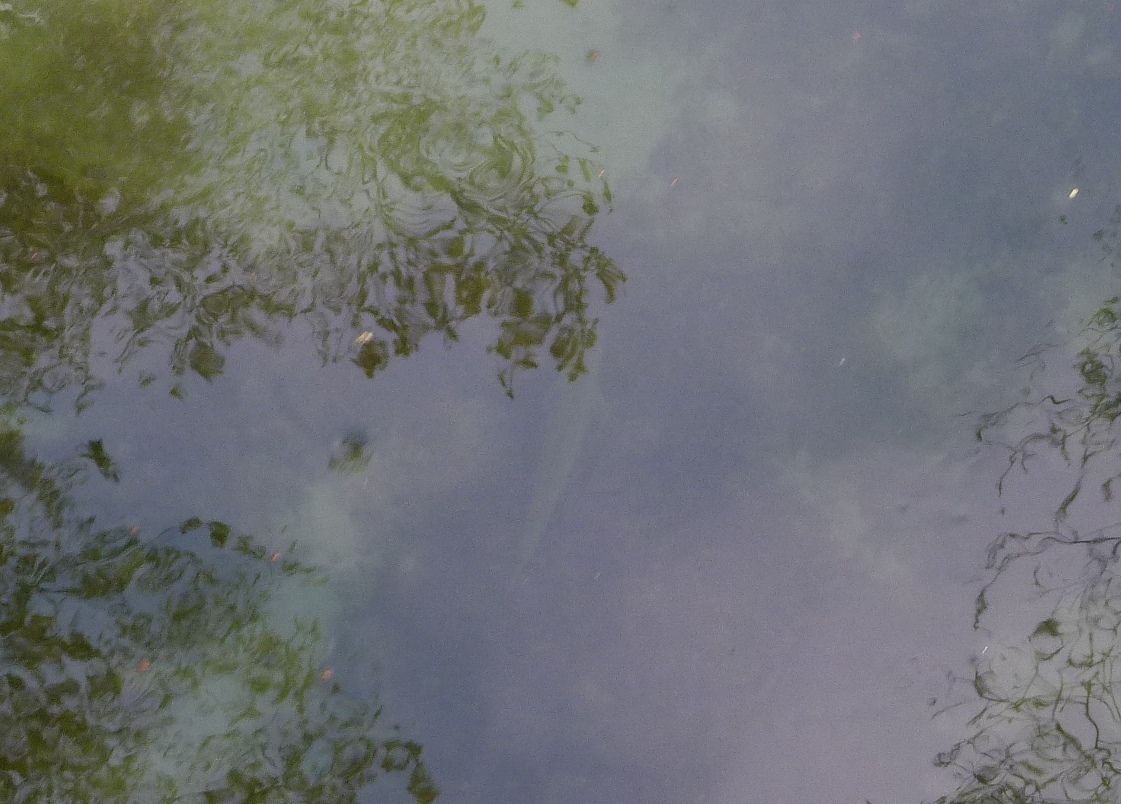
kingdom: Animalia
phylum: Chordata
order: Salmoniformes
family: Salmonidae
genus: Salmo
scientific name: Salmo trutta
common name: Brown trout
